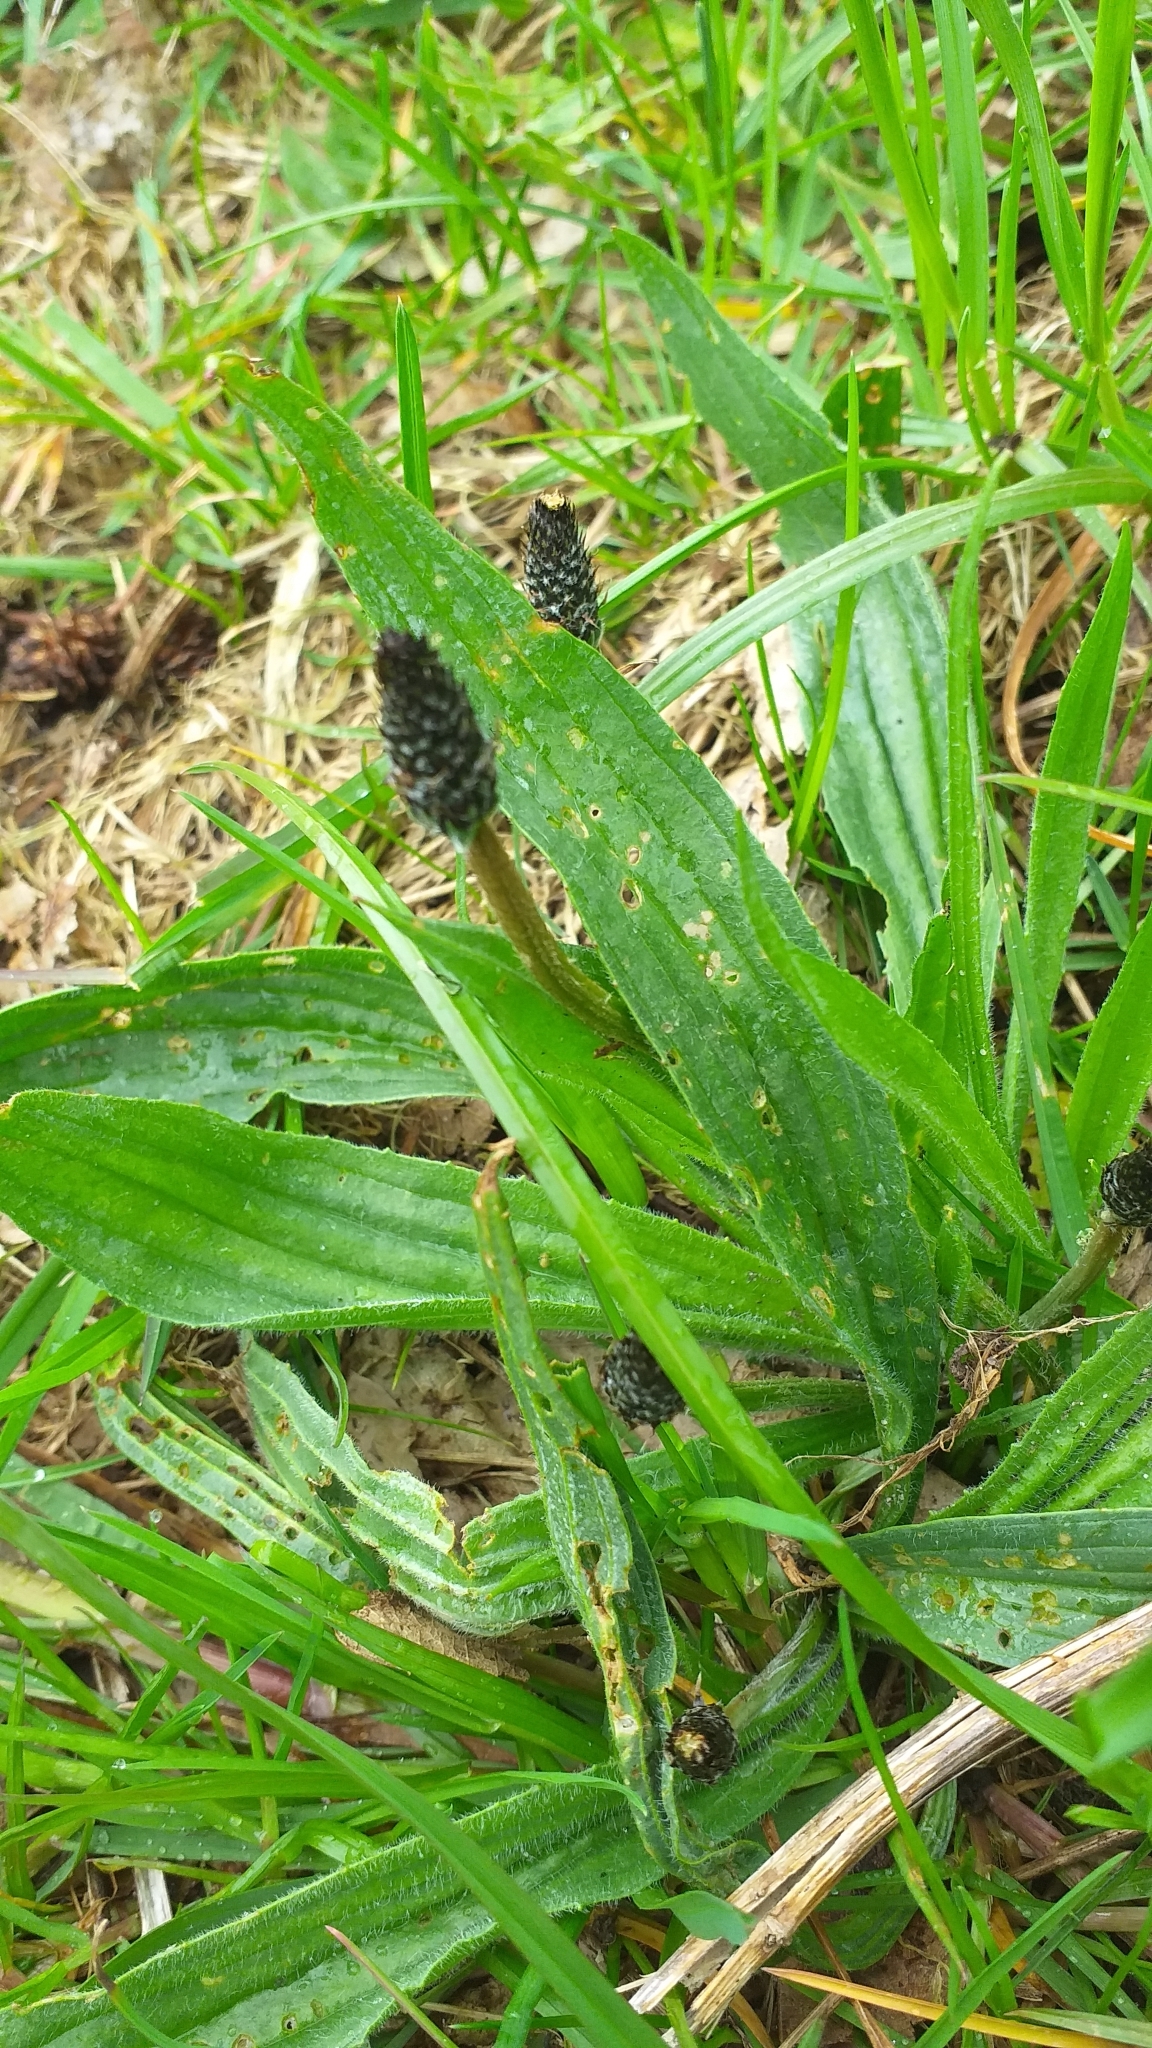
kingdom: Plantae
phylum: Tracheophyta
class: Magnoliopsida
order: Lamiales
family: Plantaginaceae
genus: Plantago
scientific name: Plantago lanceolata
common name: Ribwort plantain
